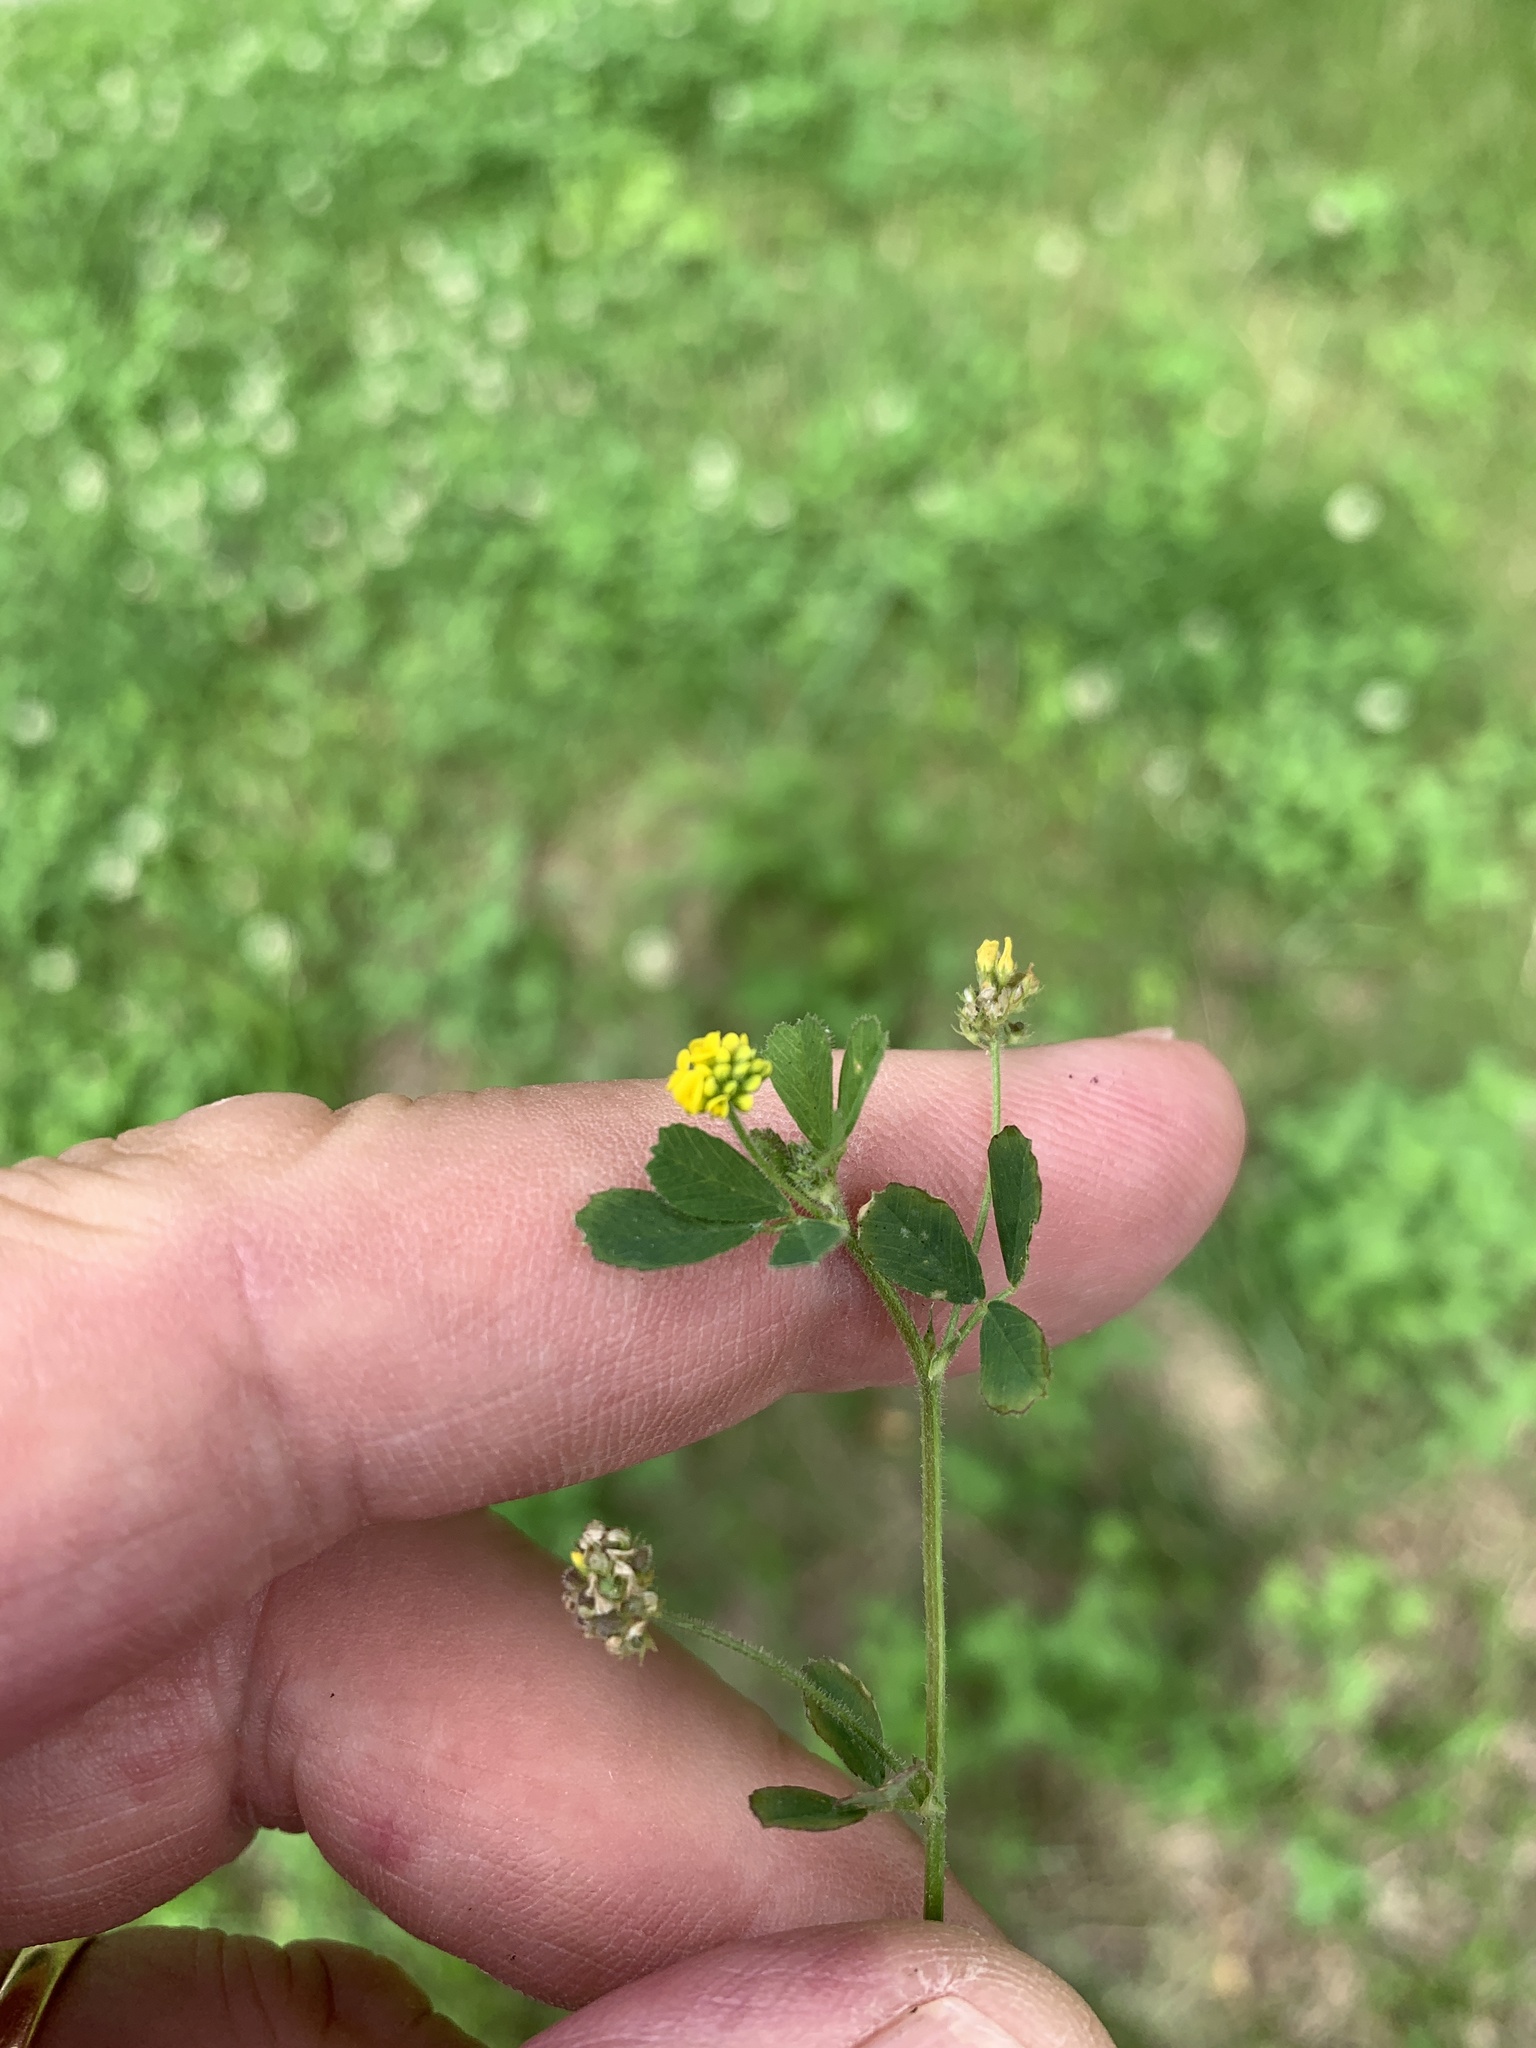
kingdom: Plantae
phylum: Tracheophyta
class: Magnoliopsida
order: Fabales
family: Fabaceae
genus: Medicago
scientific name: Medicago lupulina
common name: Black medick
